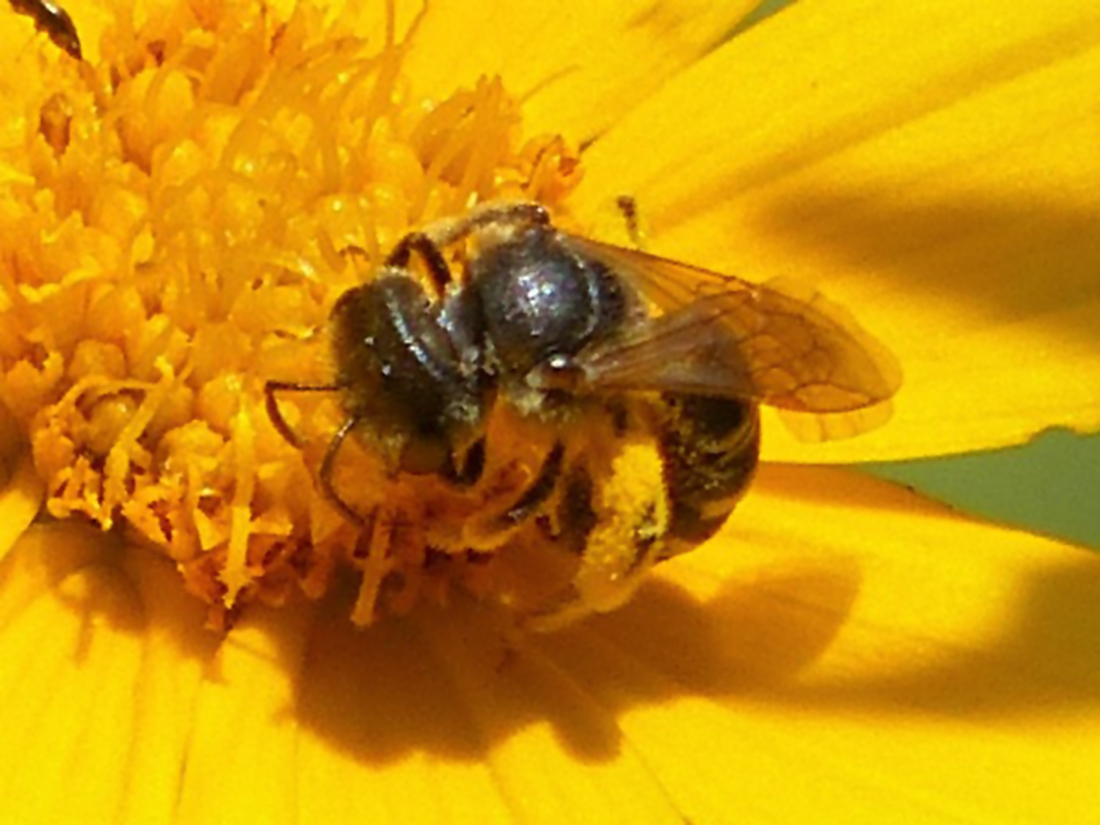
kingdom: Animalia
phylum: Arthropoda
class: Insecta
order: Hymenoptera
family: Halictidae
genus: Halictus
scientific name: Halictus ligatus
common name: Ligated furrow bee
